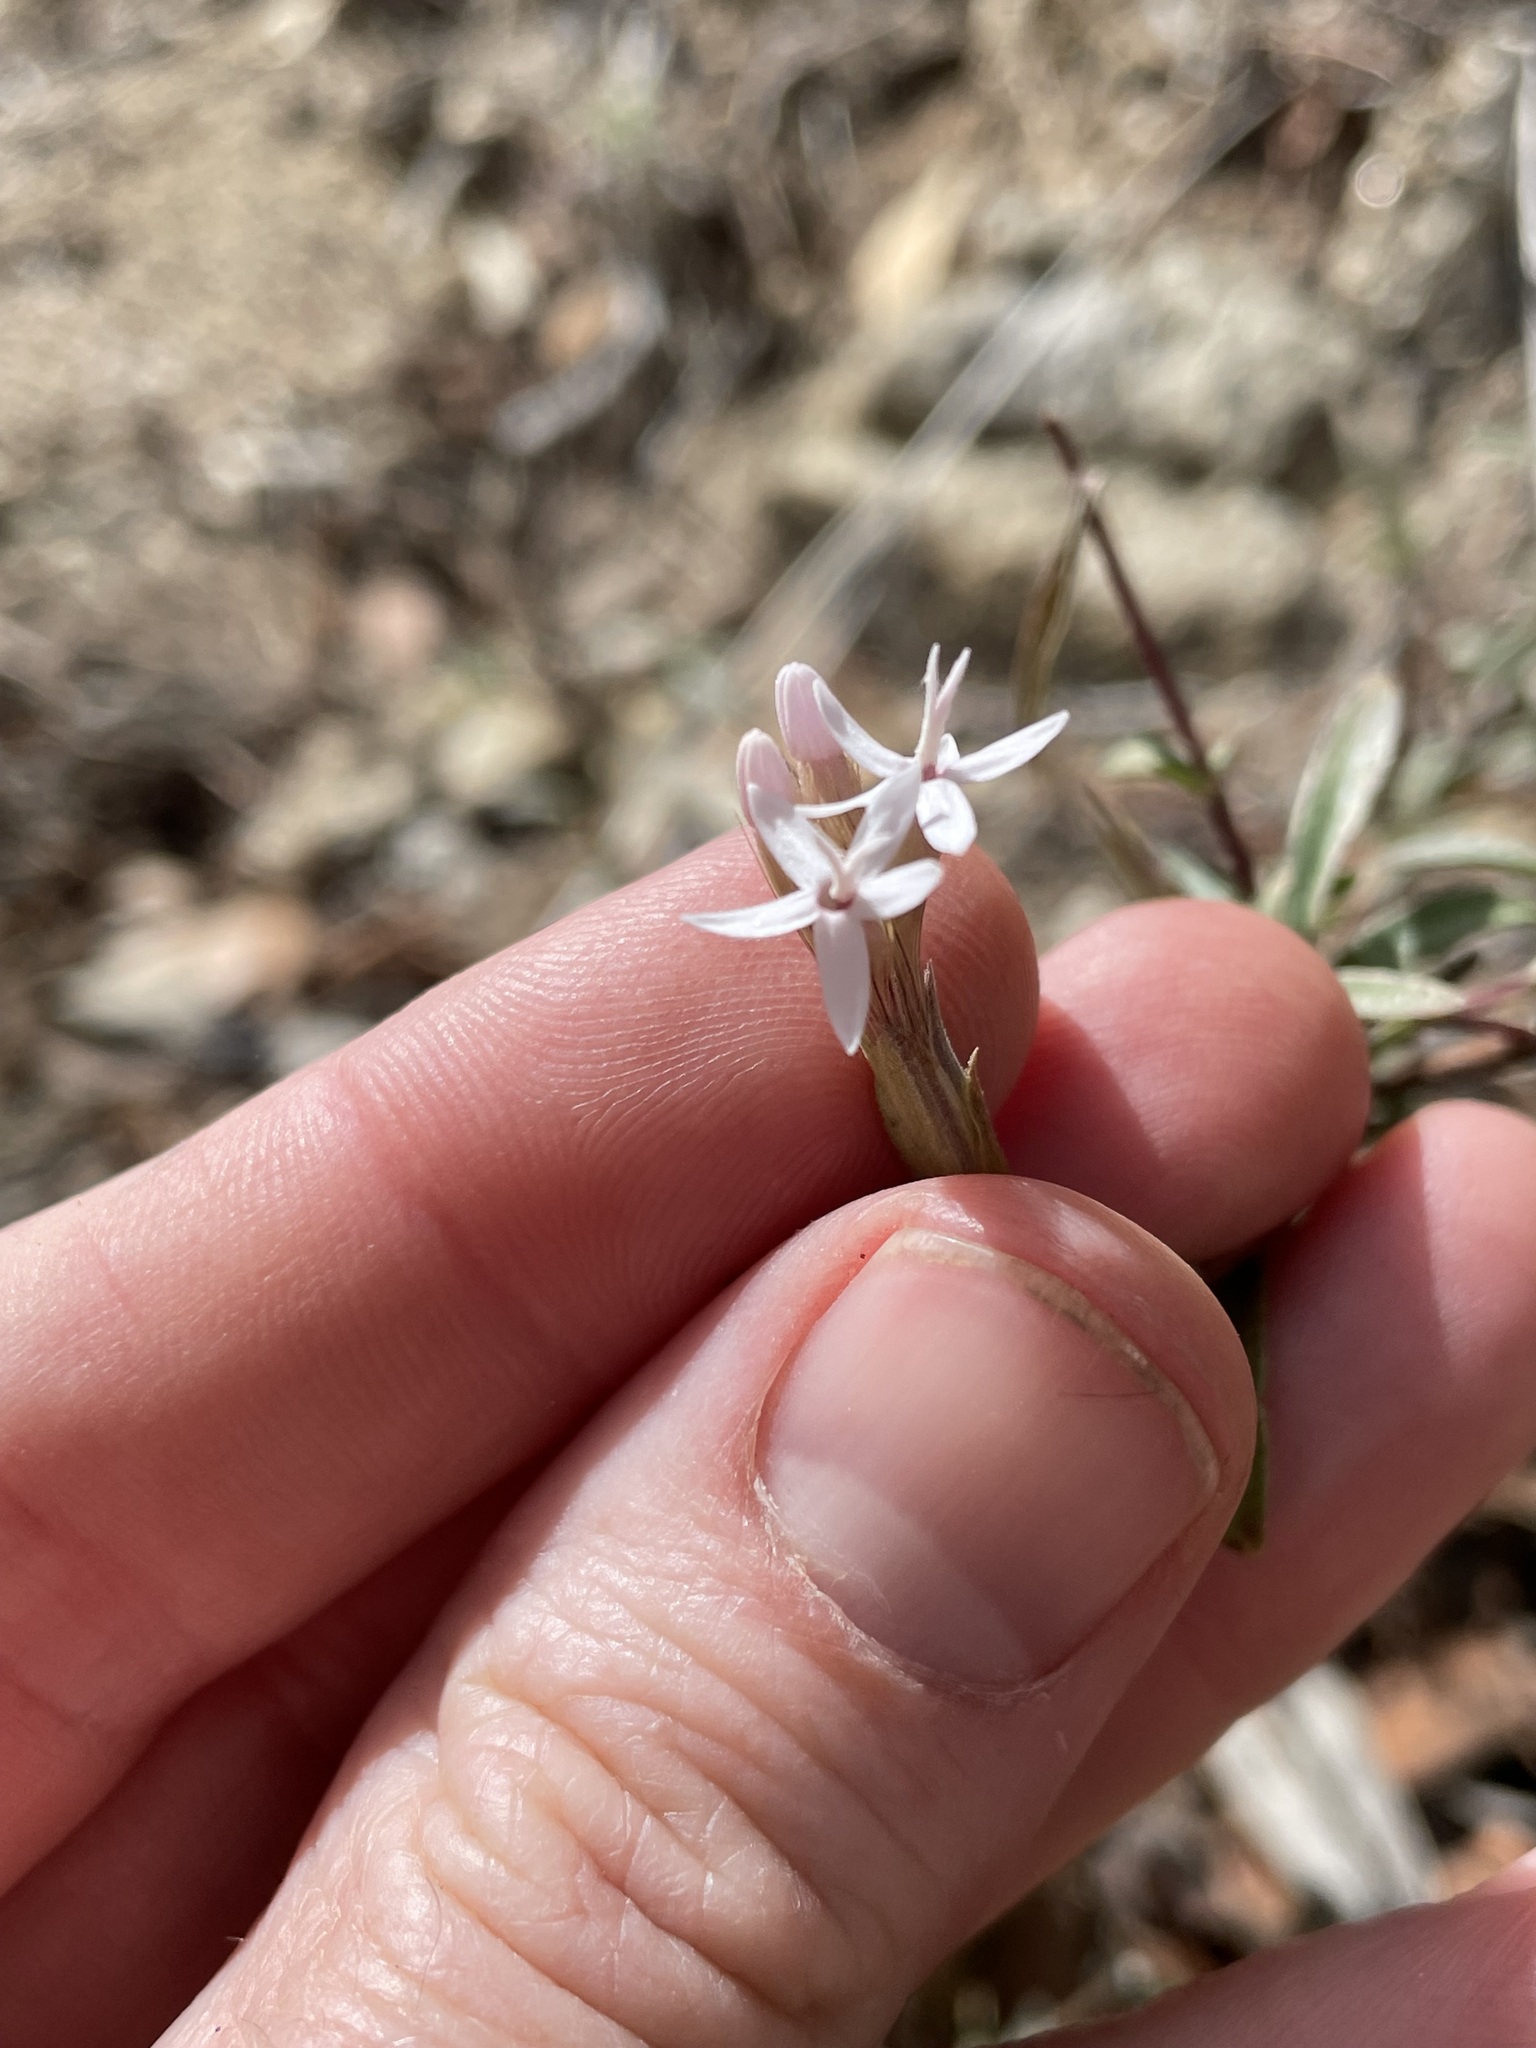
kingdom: Plantae
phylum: Tracheophyta
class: Magnoliopsida
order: Asterales
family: Asteraceae
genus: Carphochaete
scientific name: Carphochaete bigelovii
